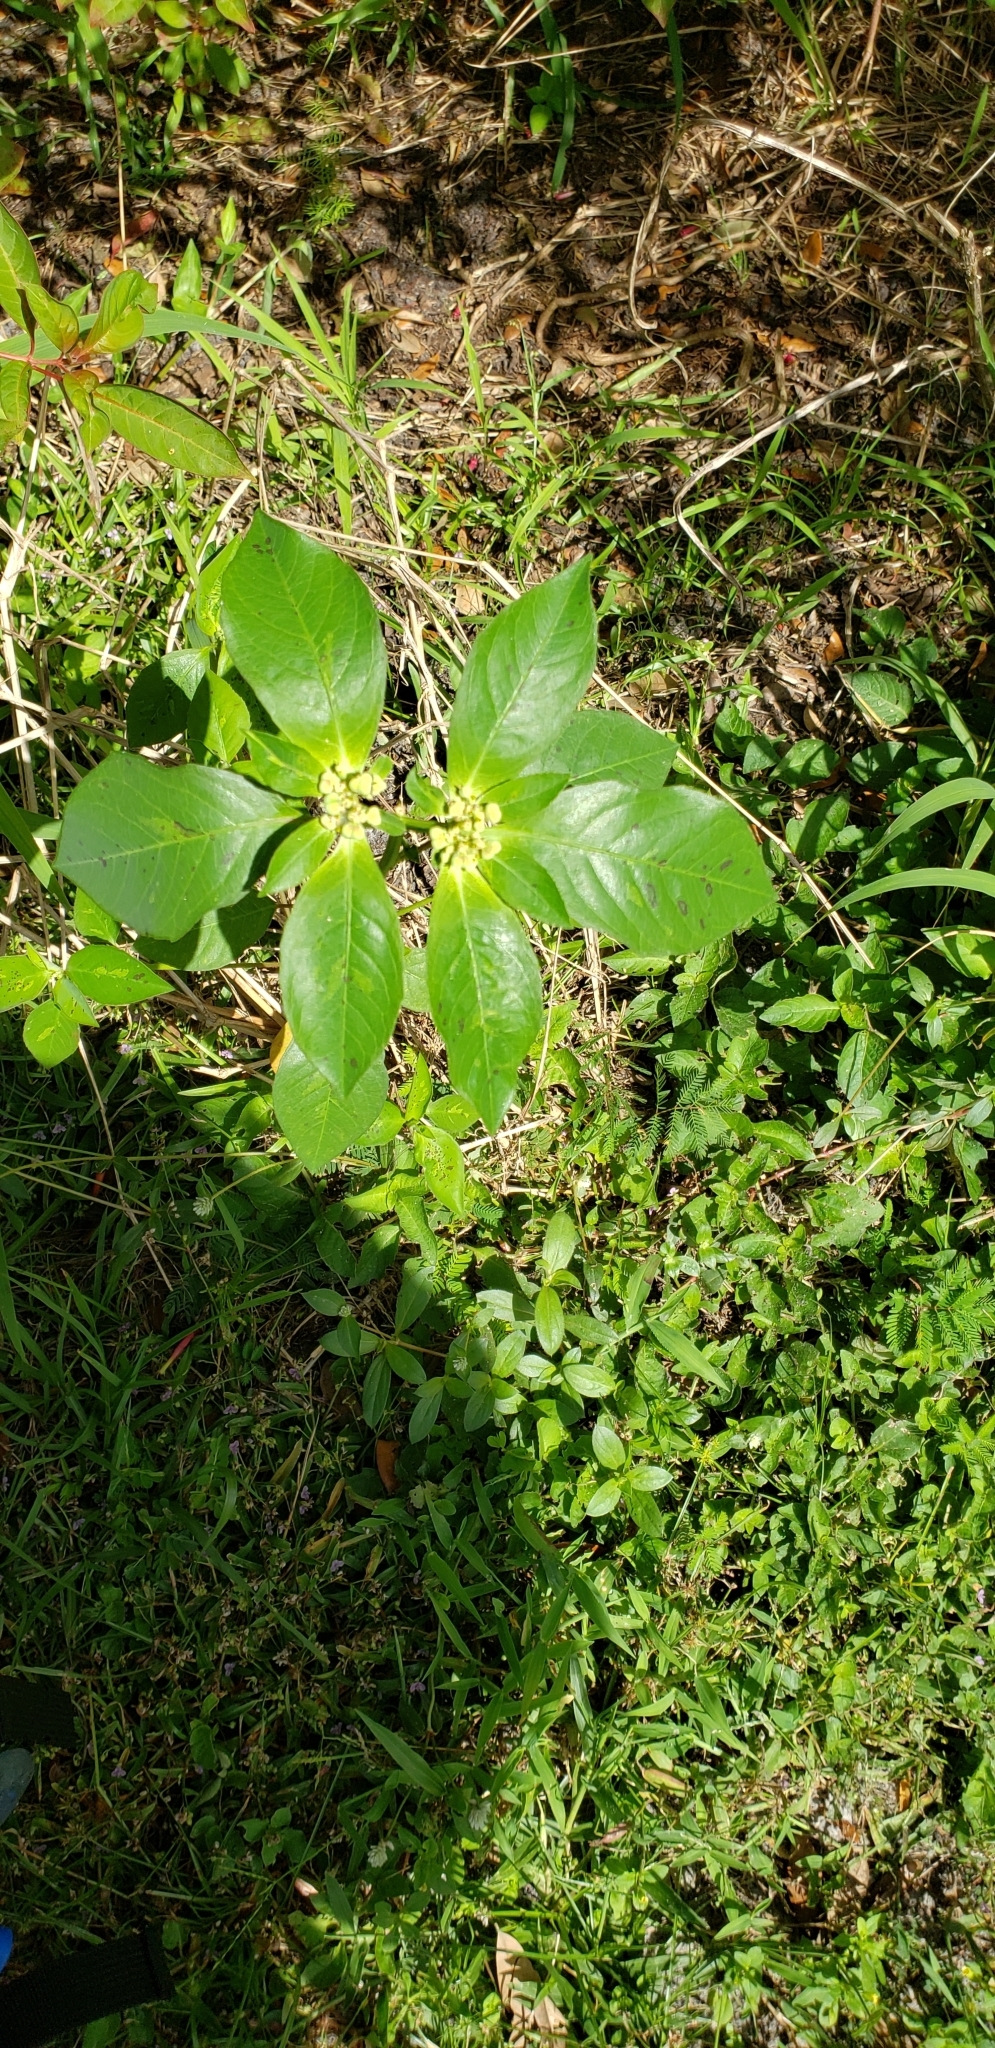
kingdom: Plantae
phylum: Tracheophyta
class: Magnoliopsida
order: Malpighiales
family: Euphorbiaceae
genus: Euphorbia
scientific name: Euphorbia heterophylla
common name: Mexican fireplant
